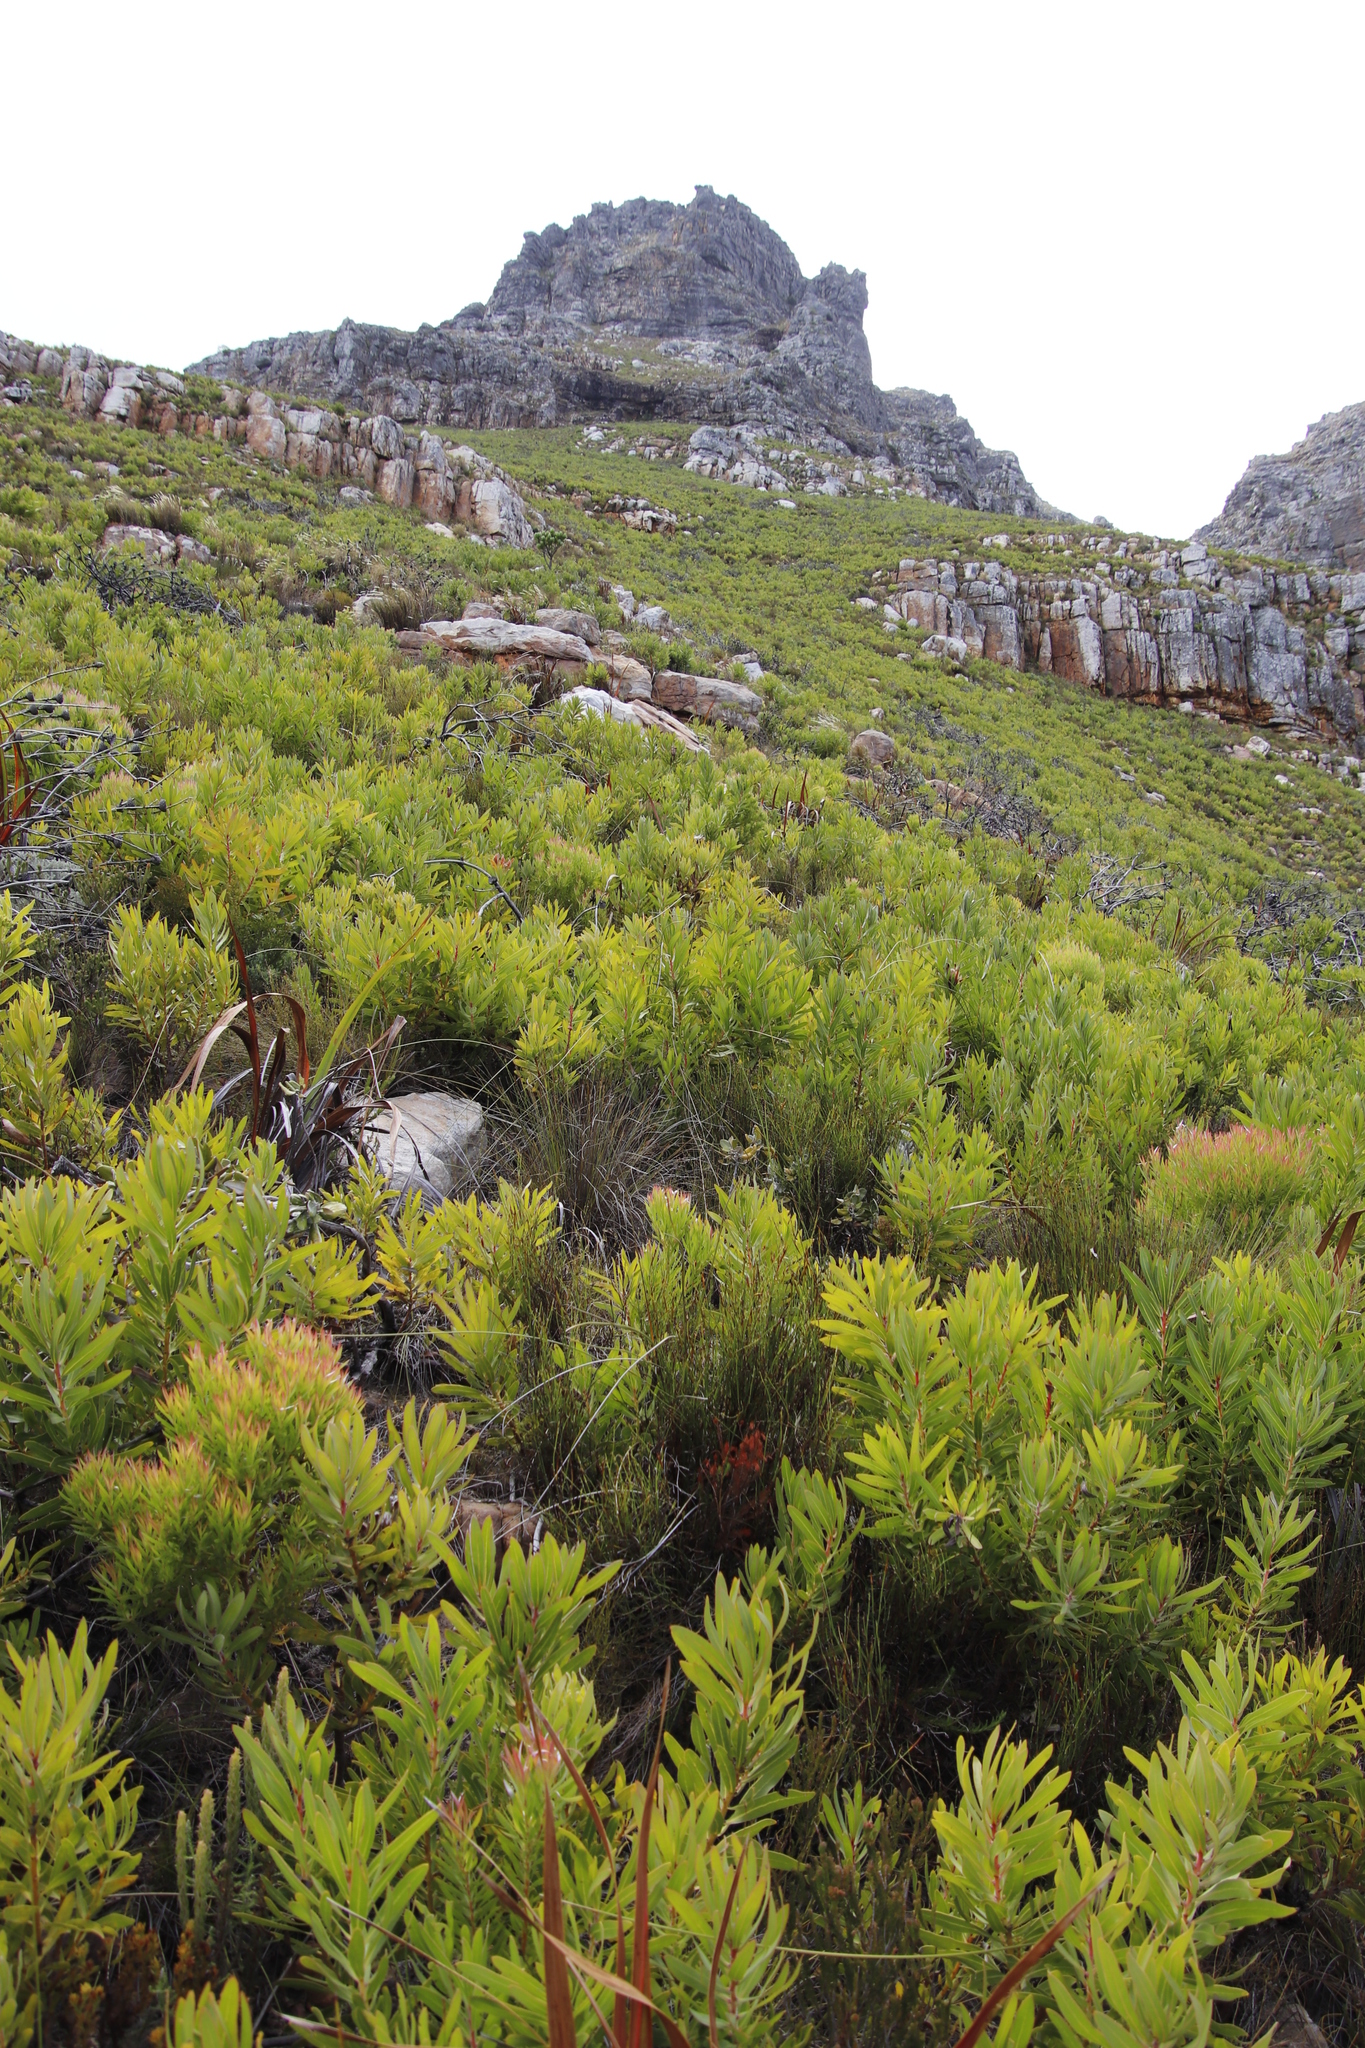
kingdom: Plantae
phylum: Tracheophyta
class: Magnoliopsida
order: Proteales
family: Proteaceae
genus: Protea
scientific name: Protea lepidocarpodendron
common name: Black-bearded protea
